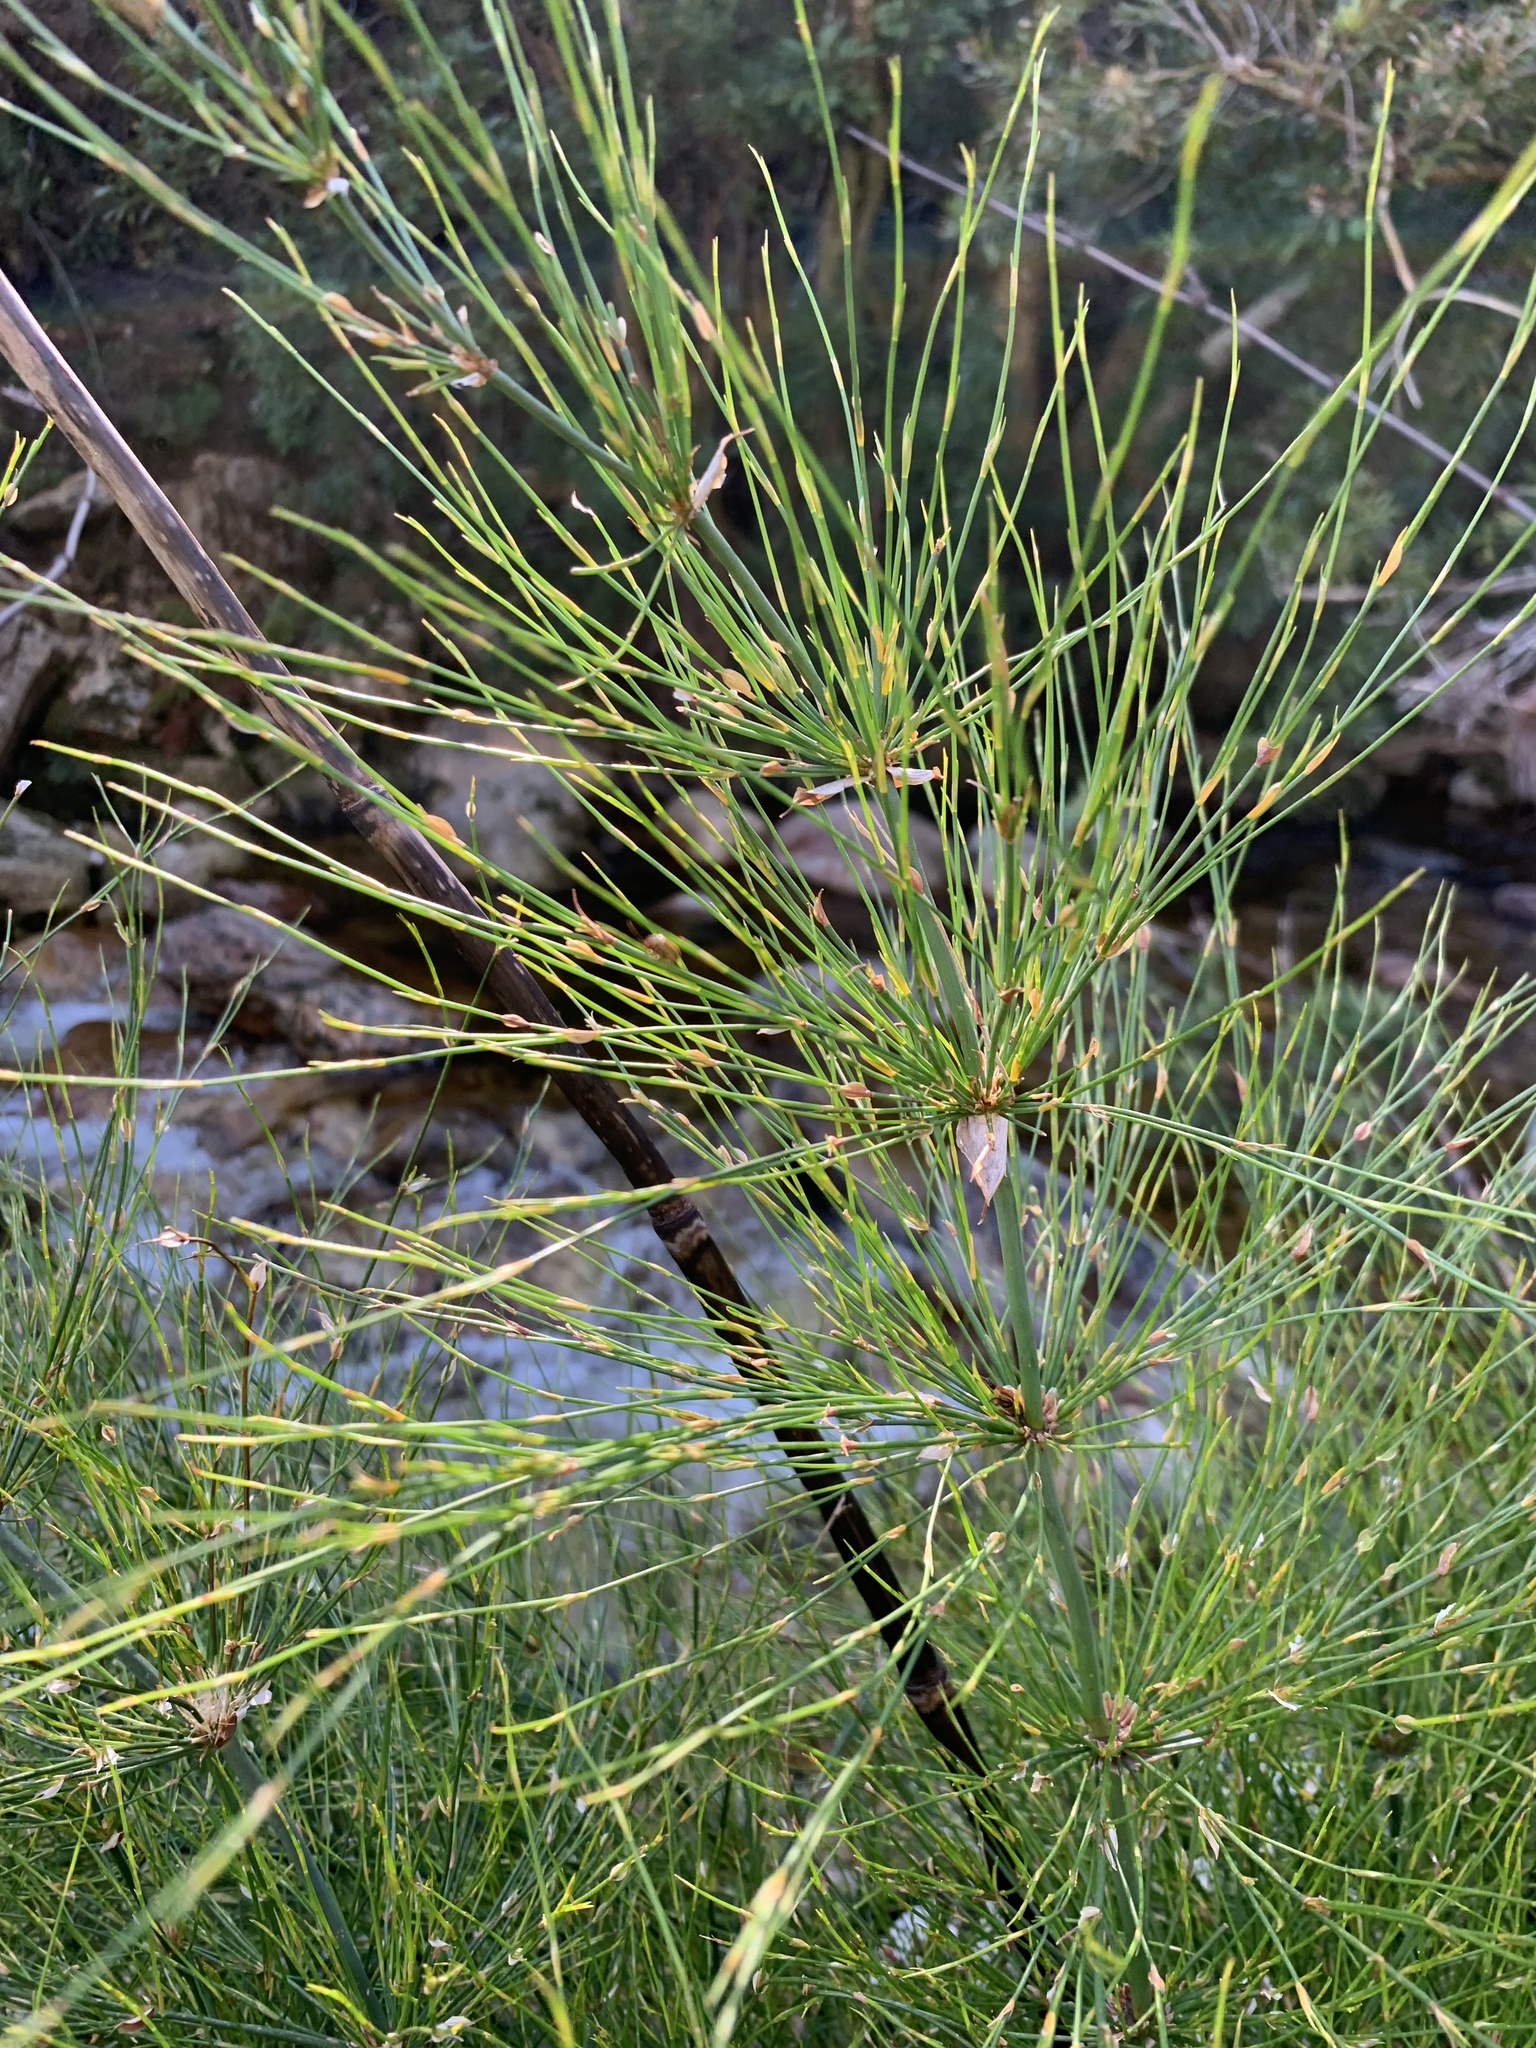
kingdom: Plantae
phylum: Tracheophyta
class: Liliopsida
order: Poales
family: Restionaceae
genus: Elegia
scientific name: Elegia capensis
